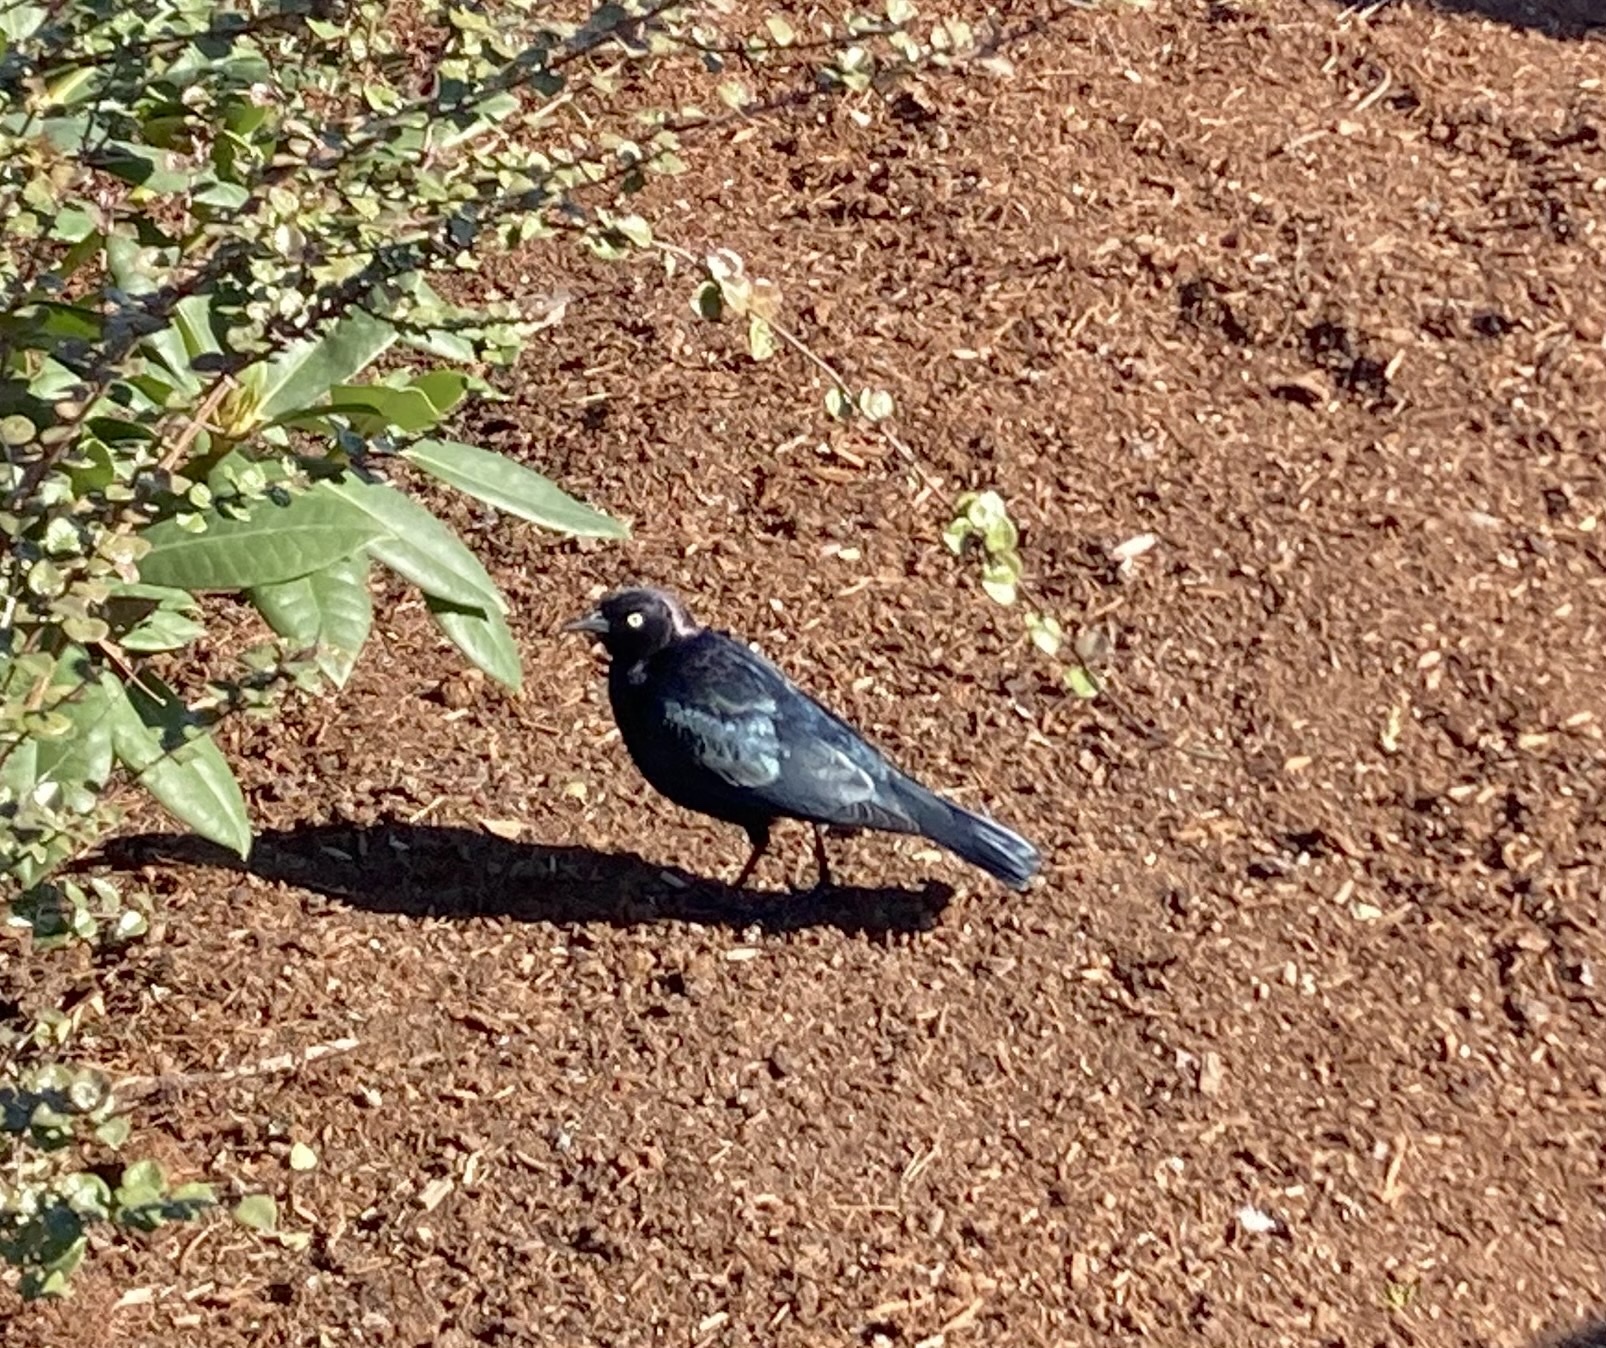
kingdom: Animalia
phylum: Chordata
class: Aves
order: Passeriformes
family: Icteridae
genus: Euphagus
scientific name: Euphagus cyanocephalus
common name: Brewer's blackbird
